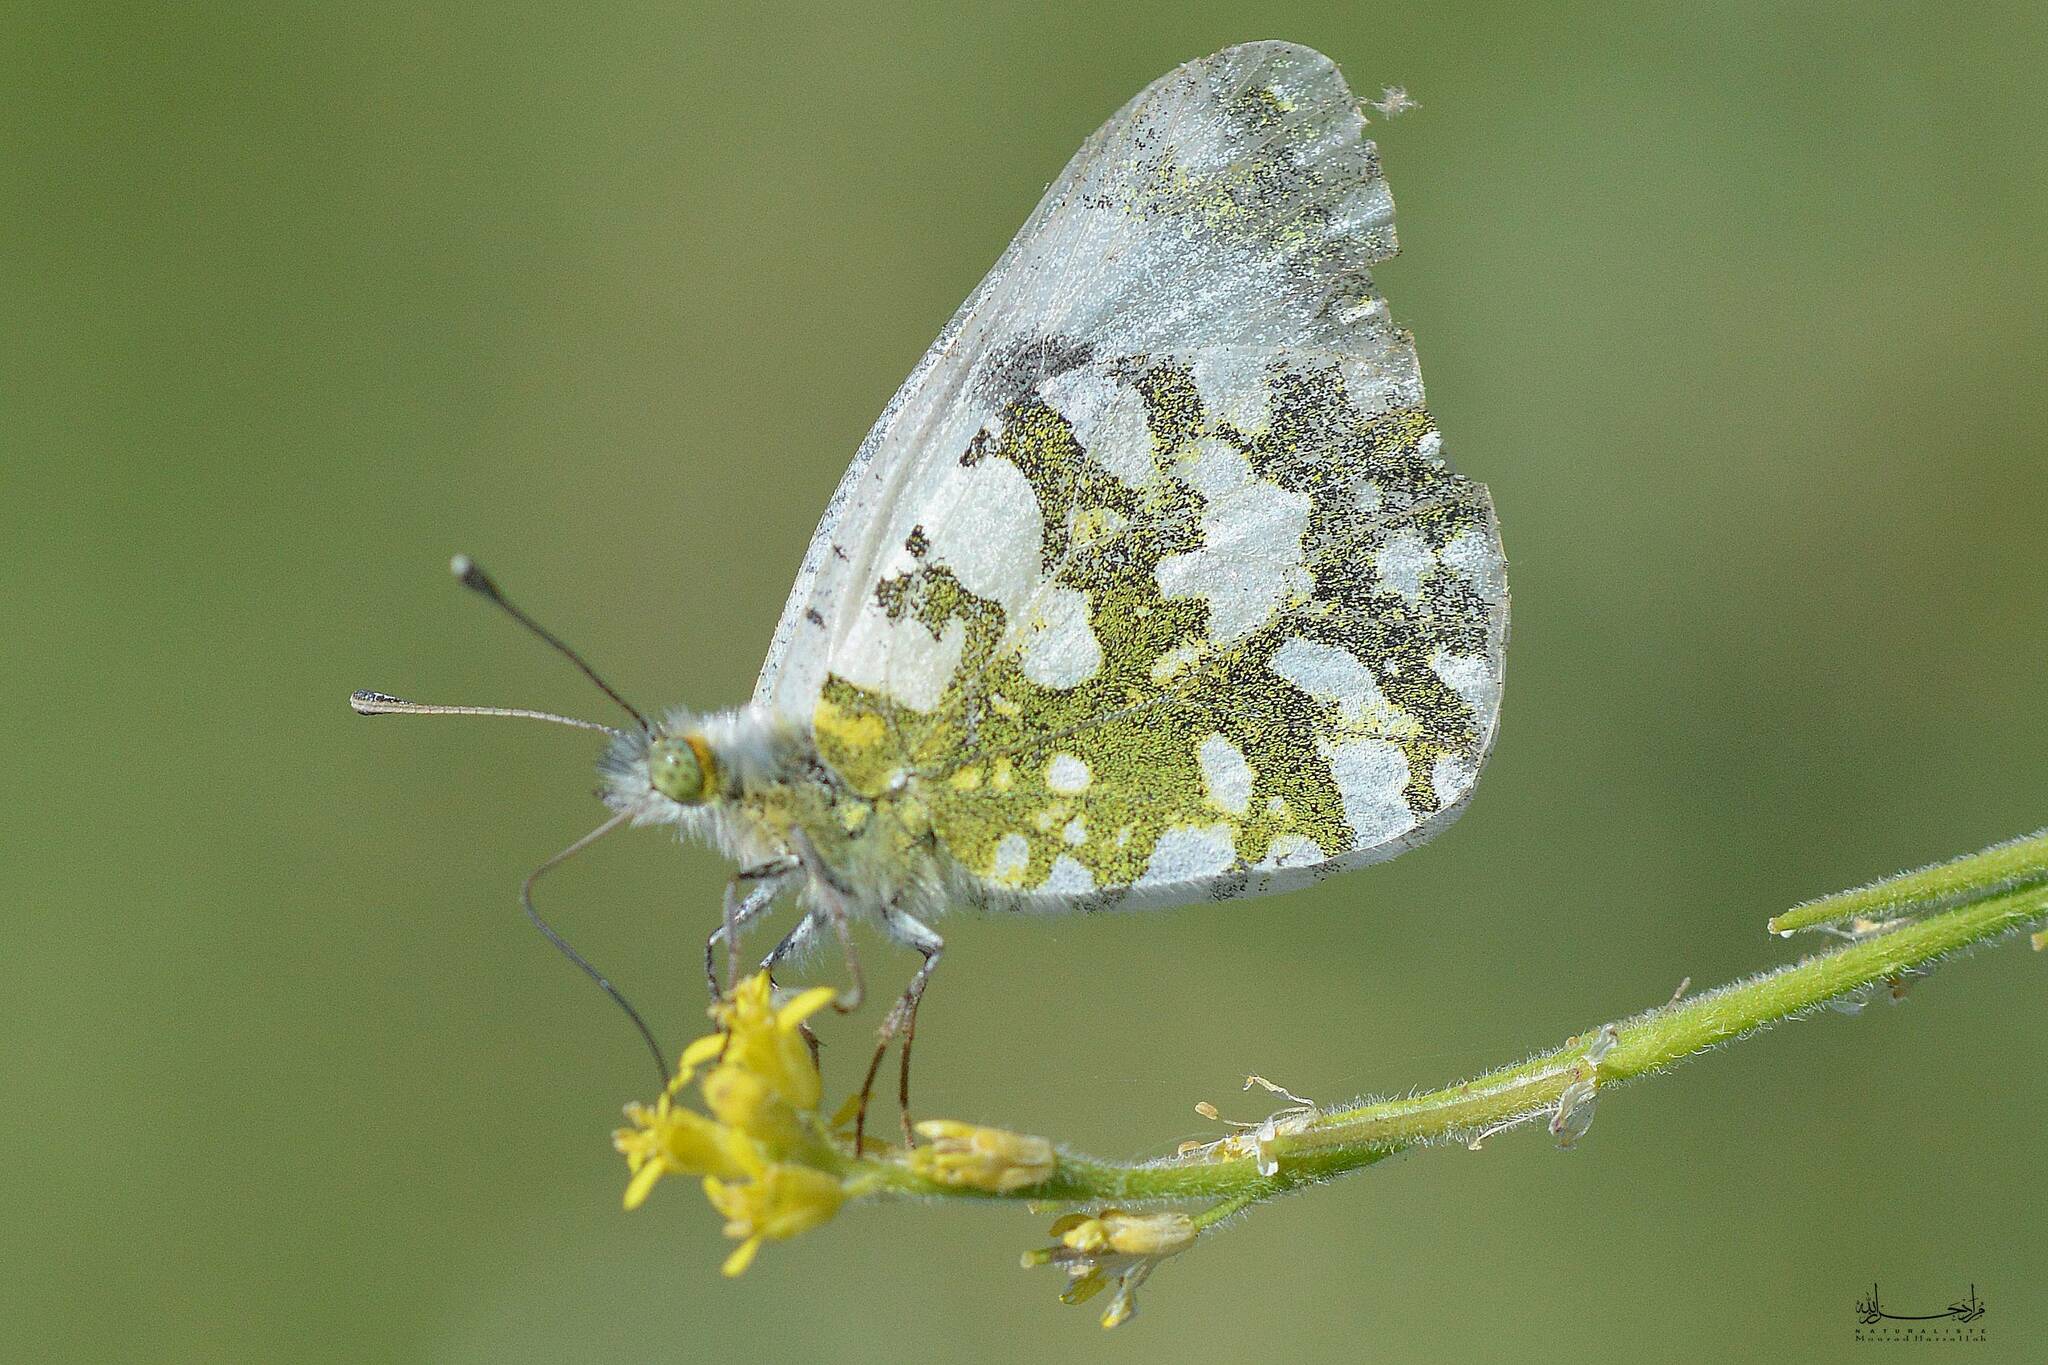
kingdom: Animalia
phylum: Chordata
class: Aves
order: Charadriiformes
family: Laridae
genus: Larus
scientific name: Larus michahellis
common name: Yellow-legged gull
